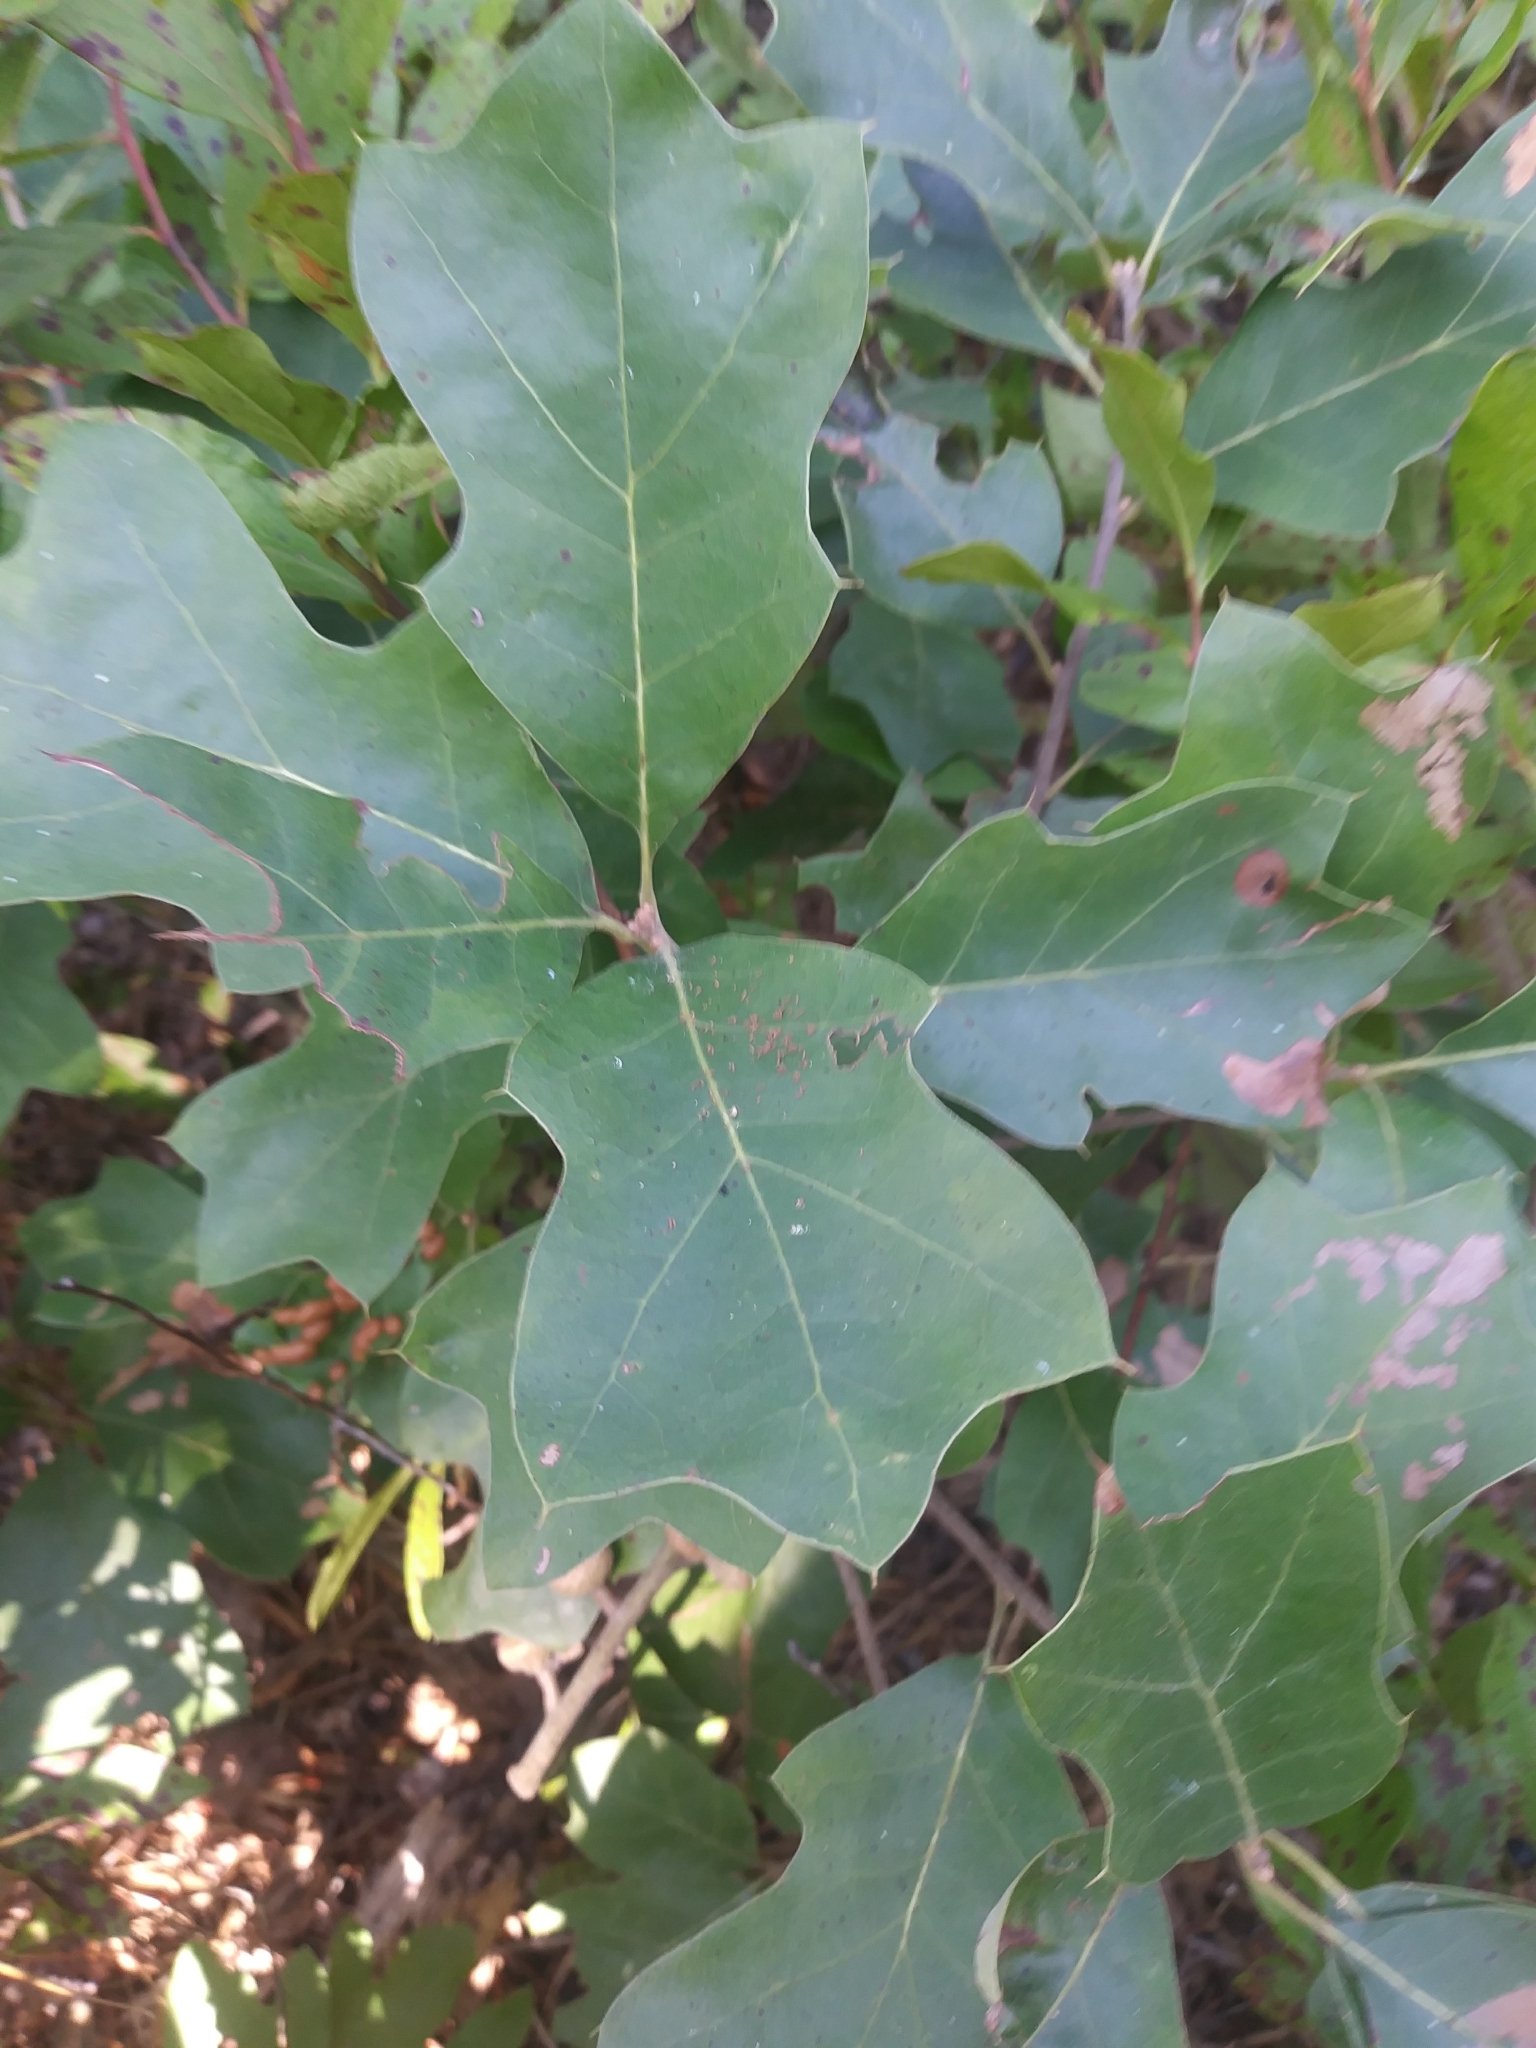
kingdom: Plantae
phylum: Tracheophyta
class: Magnoliopsida
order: Fagales
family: Fagaceae
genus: Quercus
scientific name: Quercus ilicifolia
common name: Bear oak
